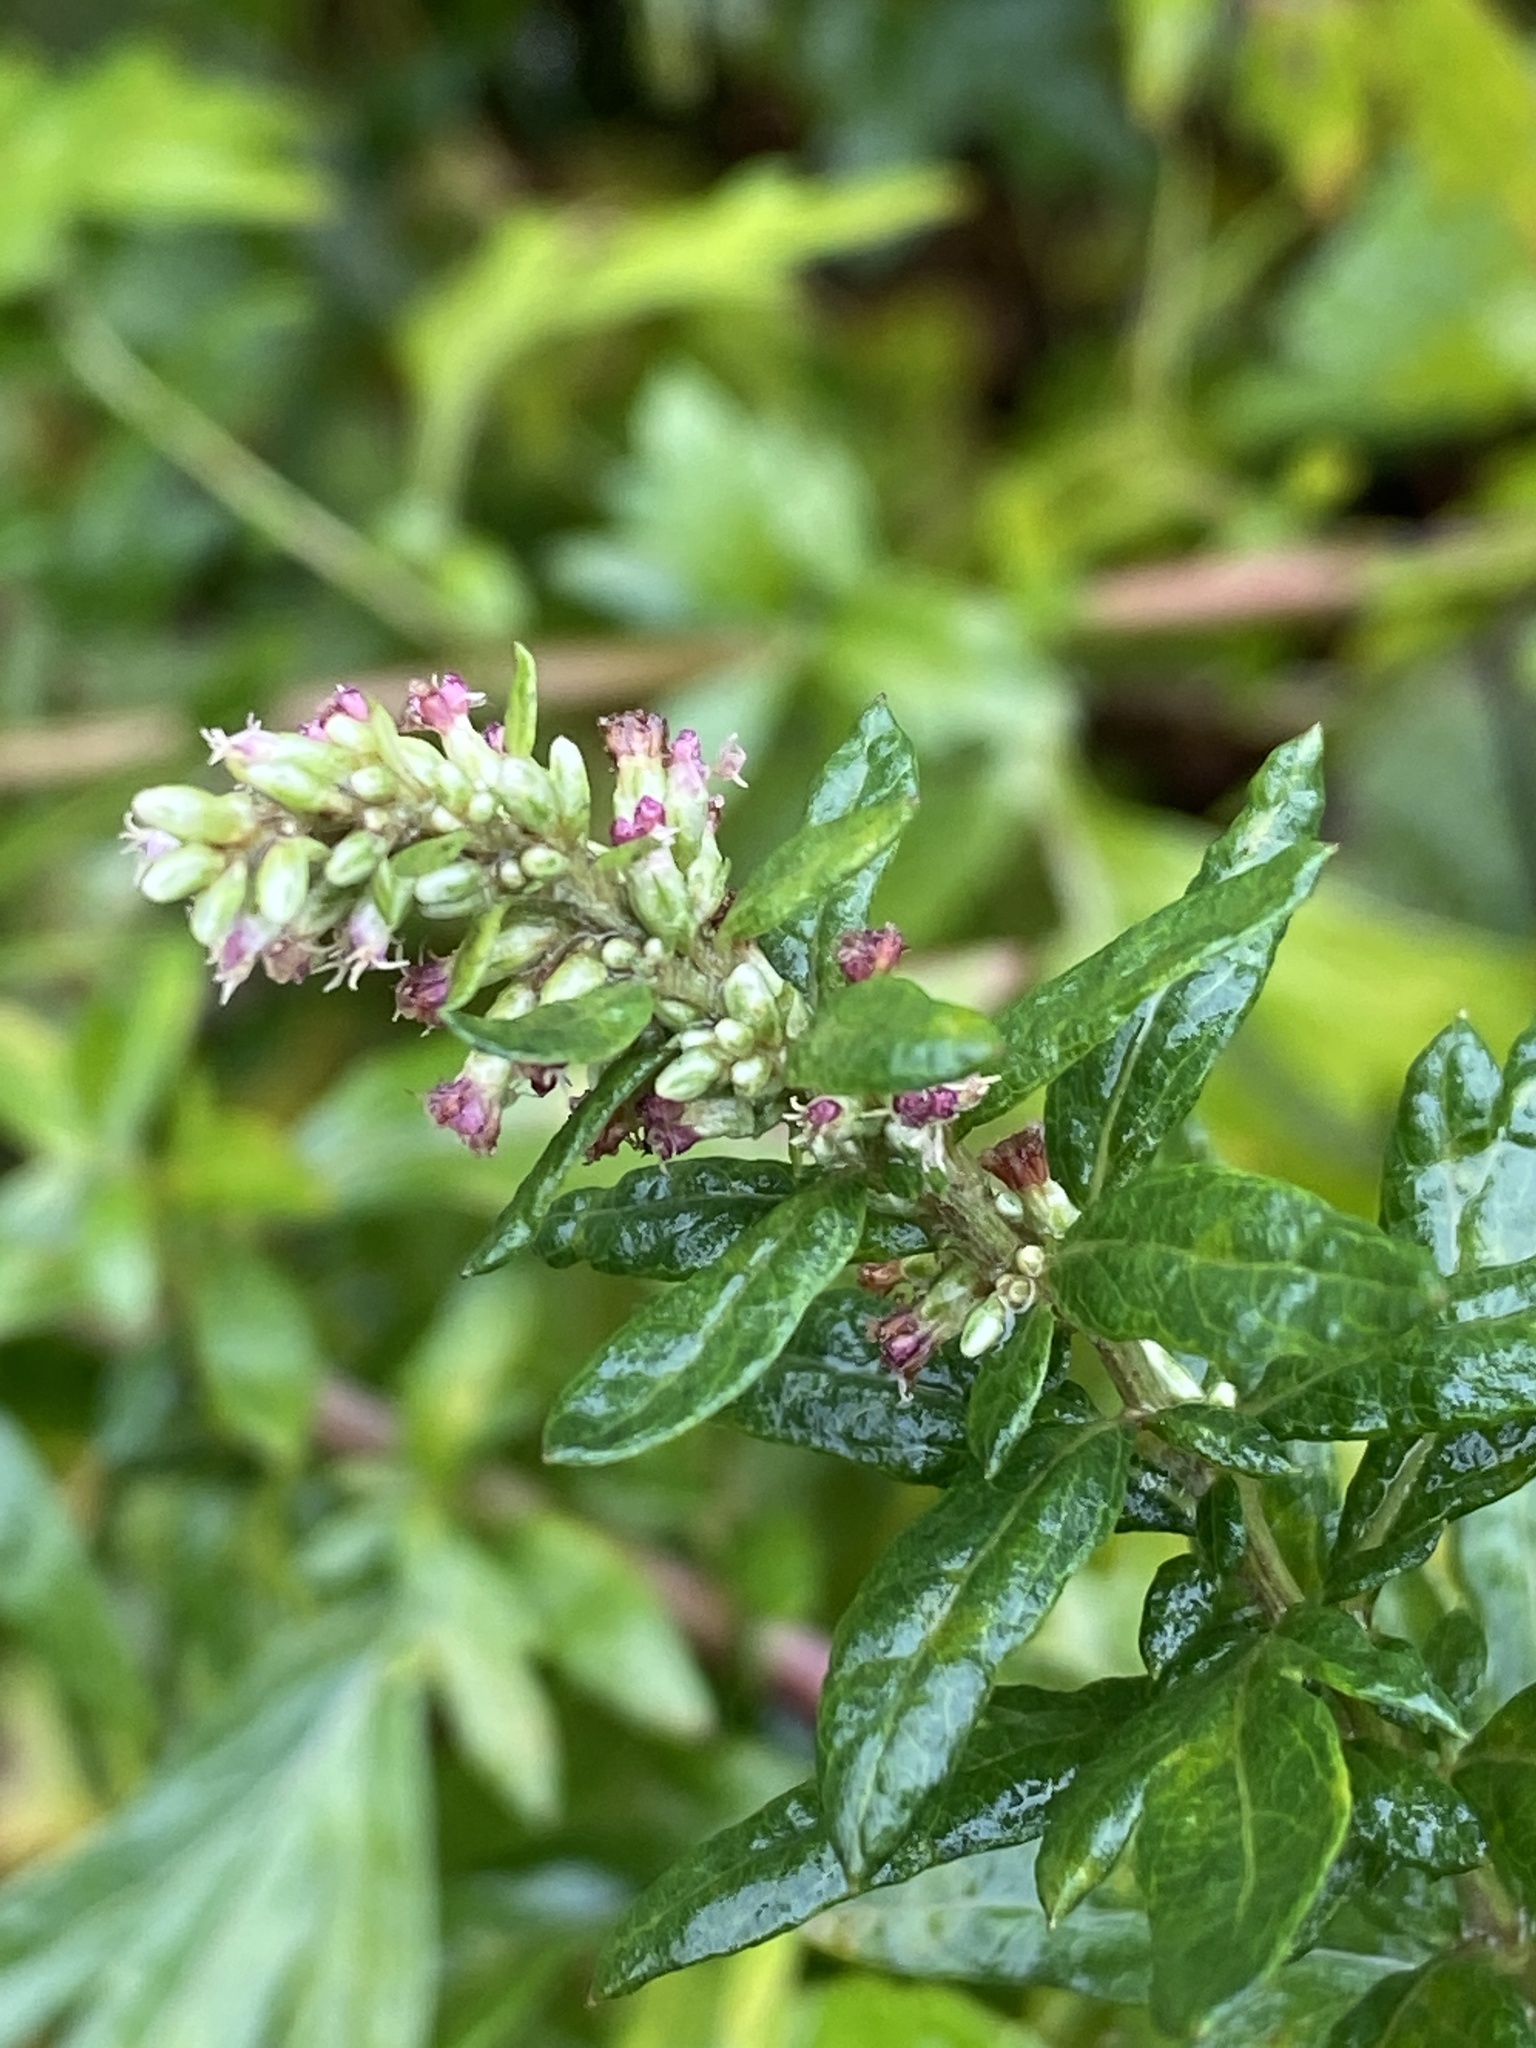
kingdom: Plantae
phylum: Tracheophyta
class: Magnoliopsida
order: Asterales
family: Asteraceae
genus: Artemisia
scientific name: Artemisia vulgaris
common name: Mugwort
